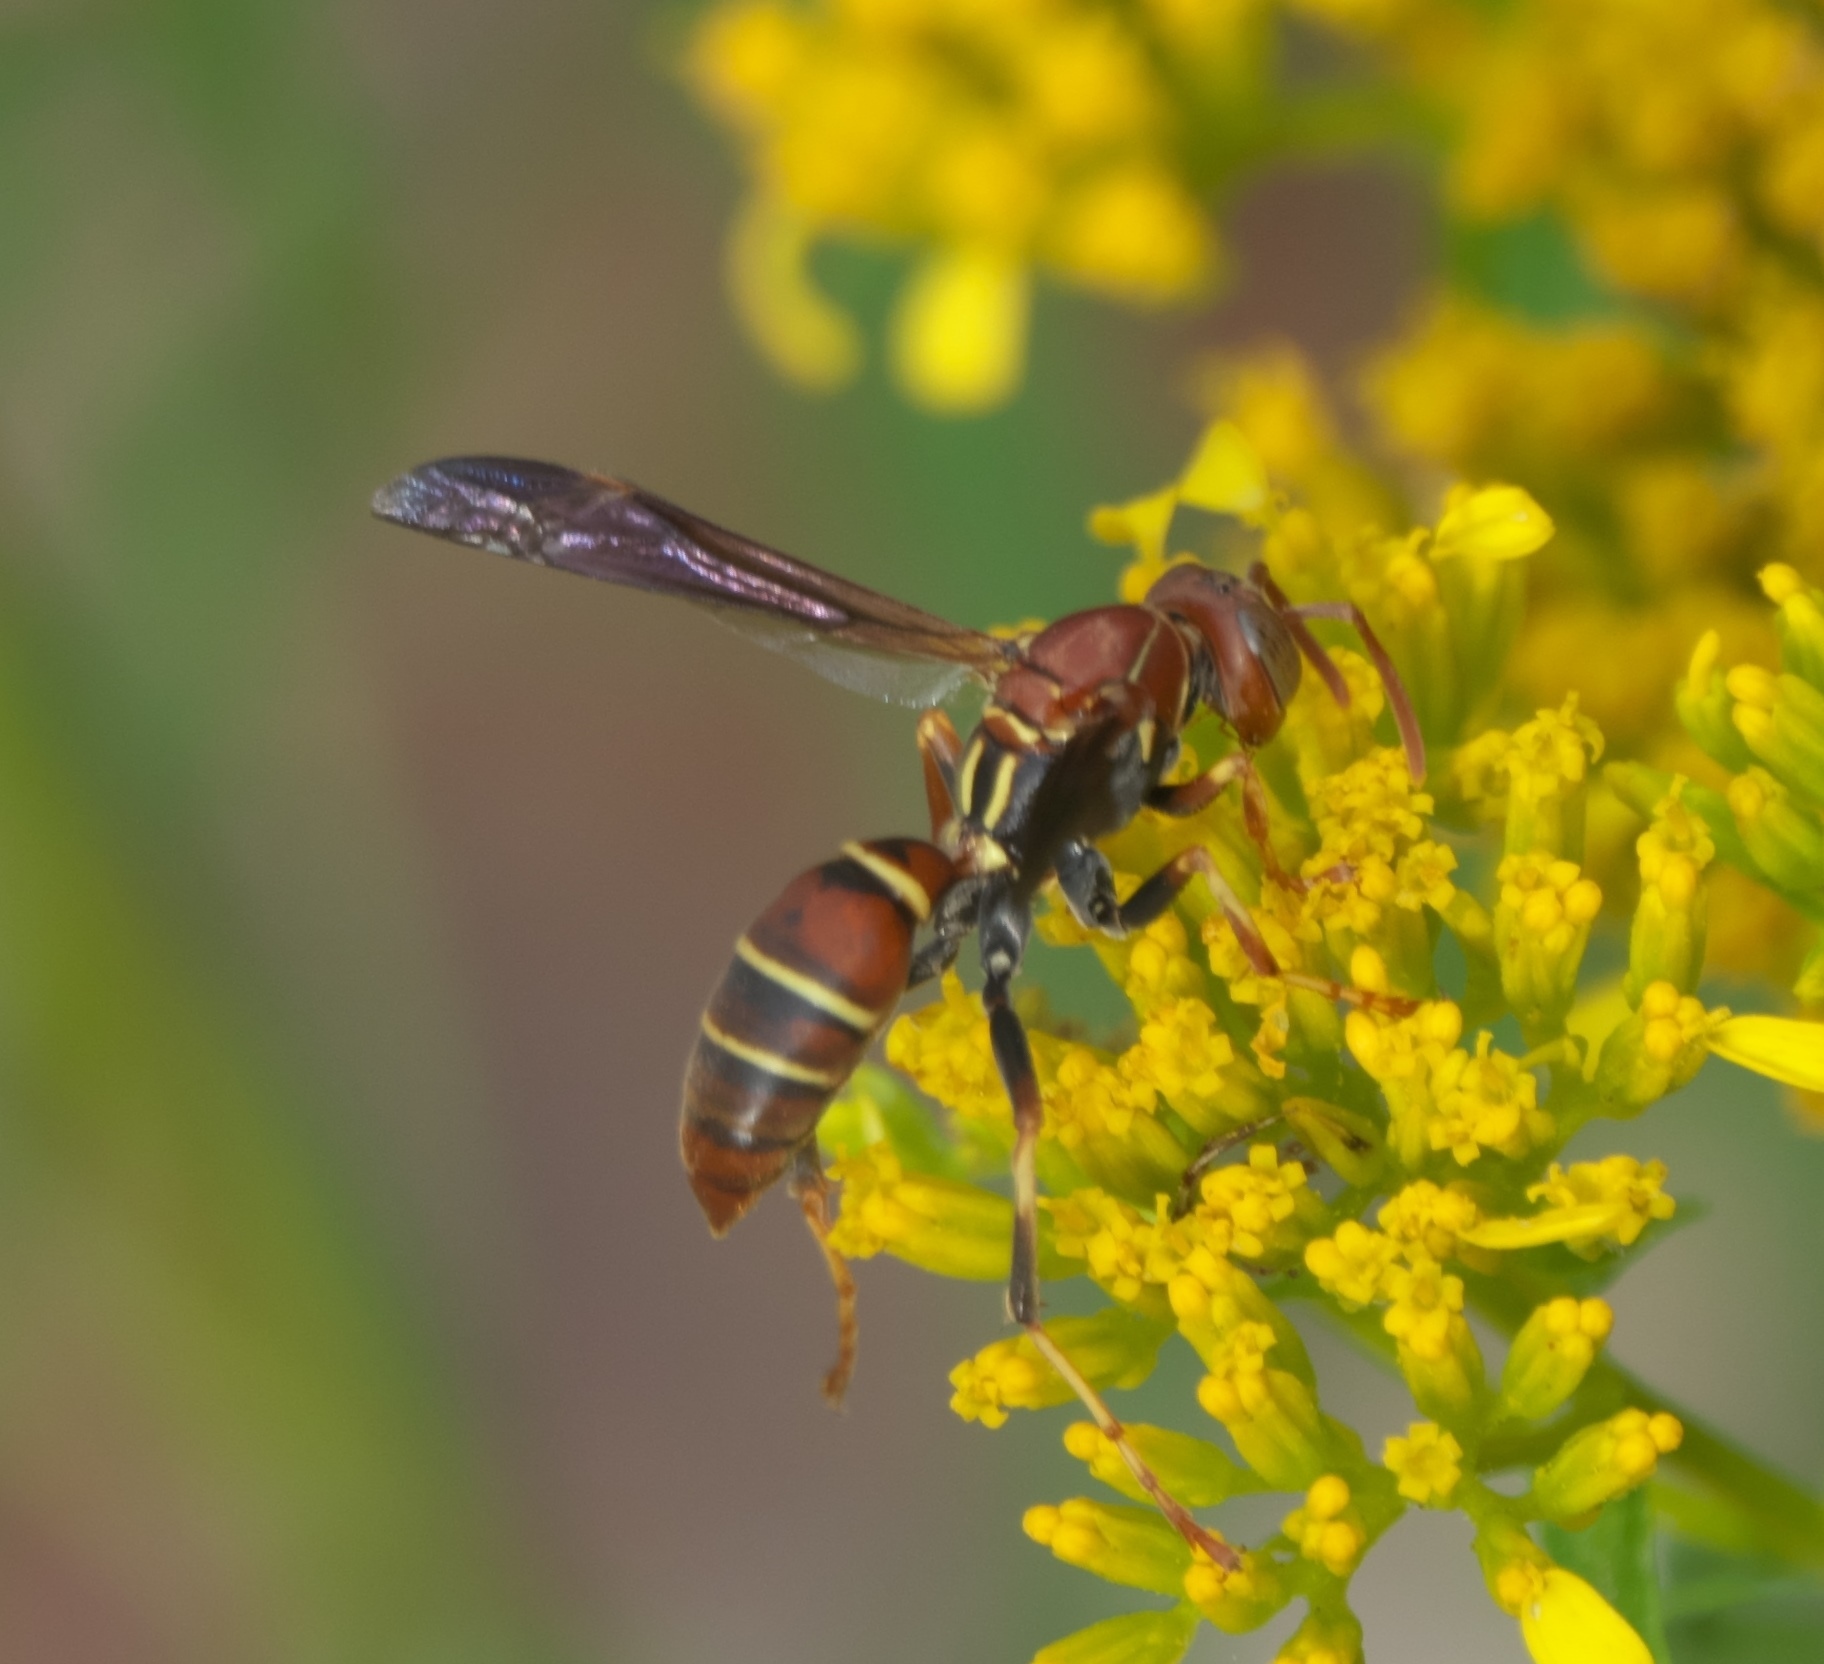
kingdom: Animalia
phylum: Arthropoda
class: Insecta
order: Hymenoptera
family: Eumenidae
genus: Polistes
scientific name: Polistes dorsalis
